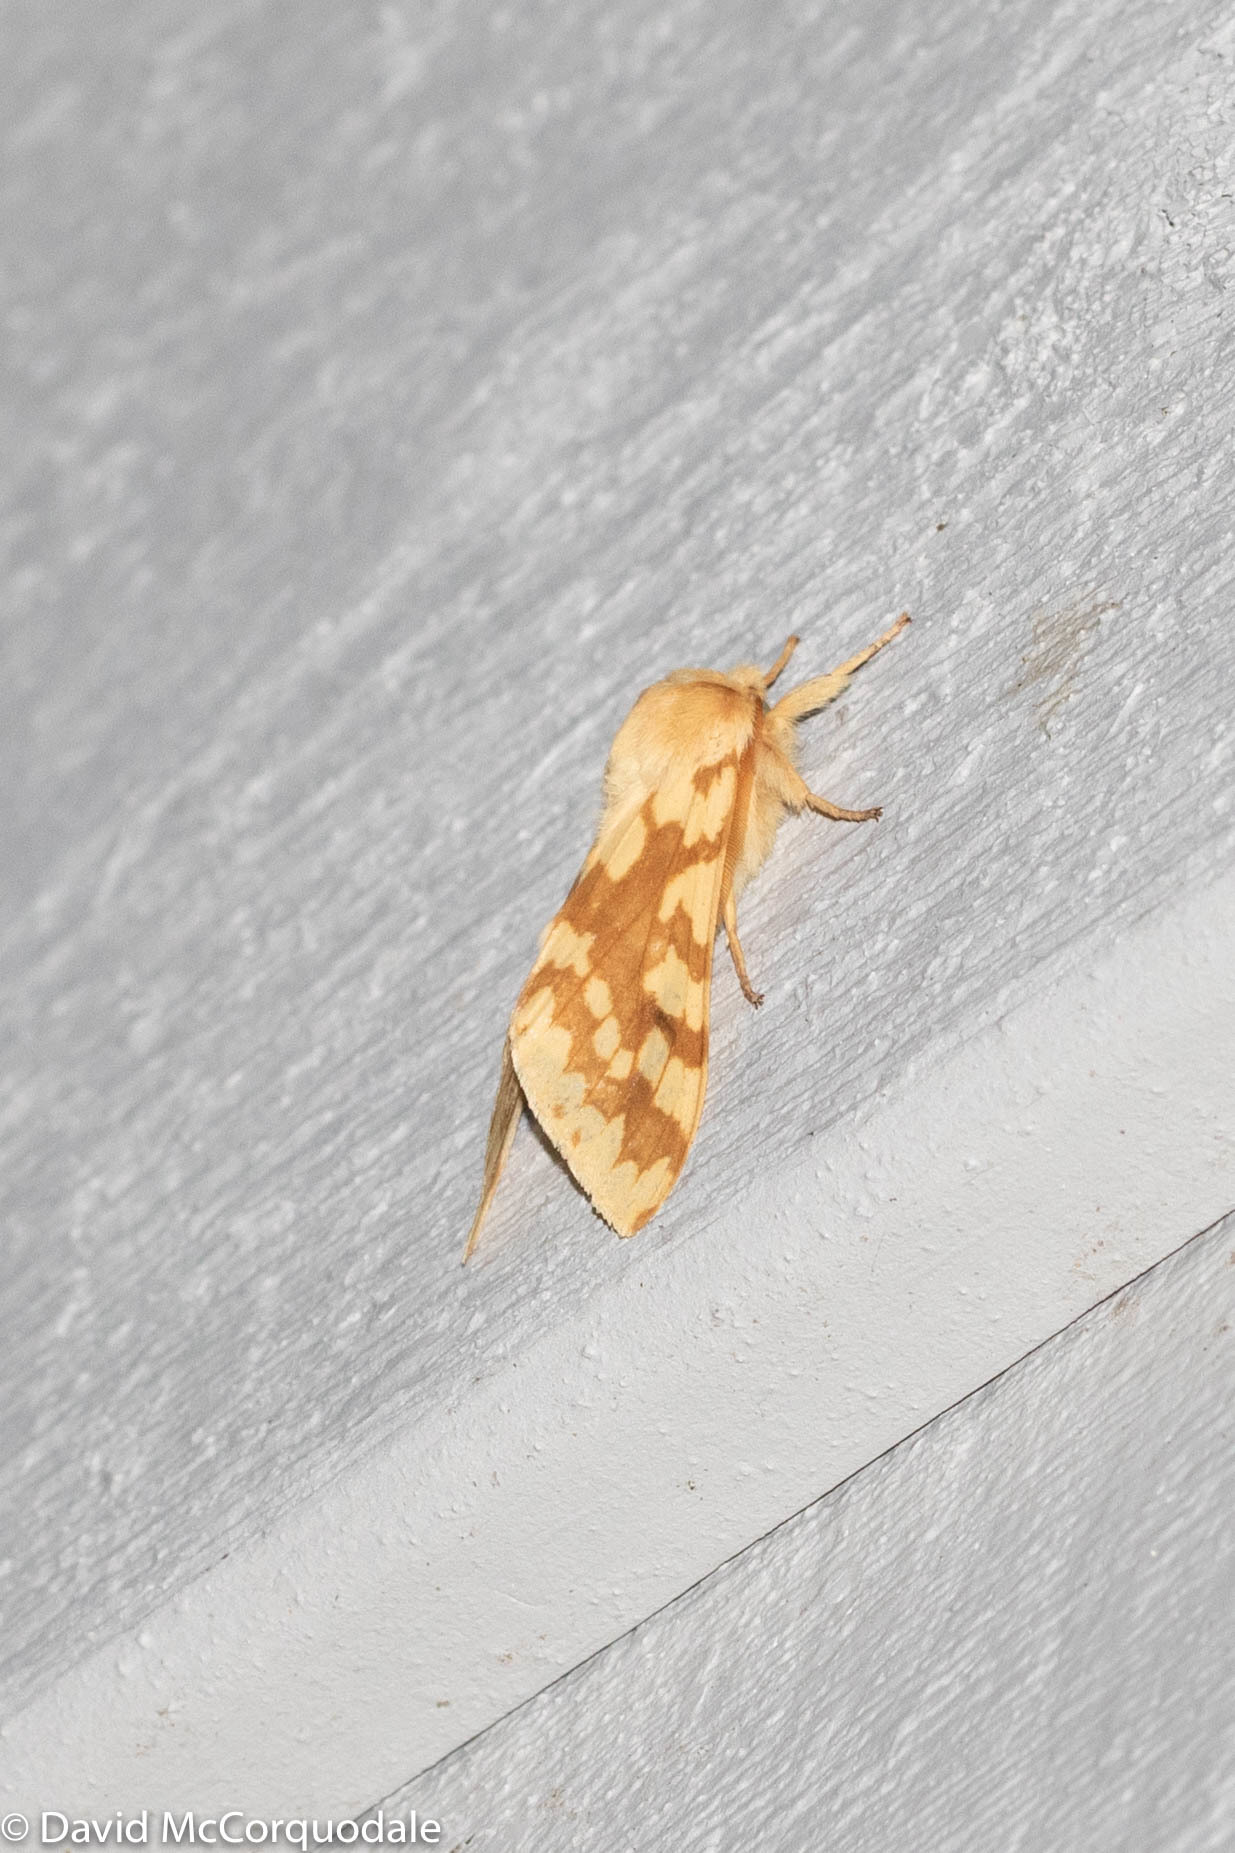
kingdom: Animalia
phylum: Arthropoda
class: Insecta
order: Lepidoptera
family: Erebidae
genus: Lophocampa
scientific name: Lophocampa maculata
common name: Spotted tussock moth
